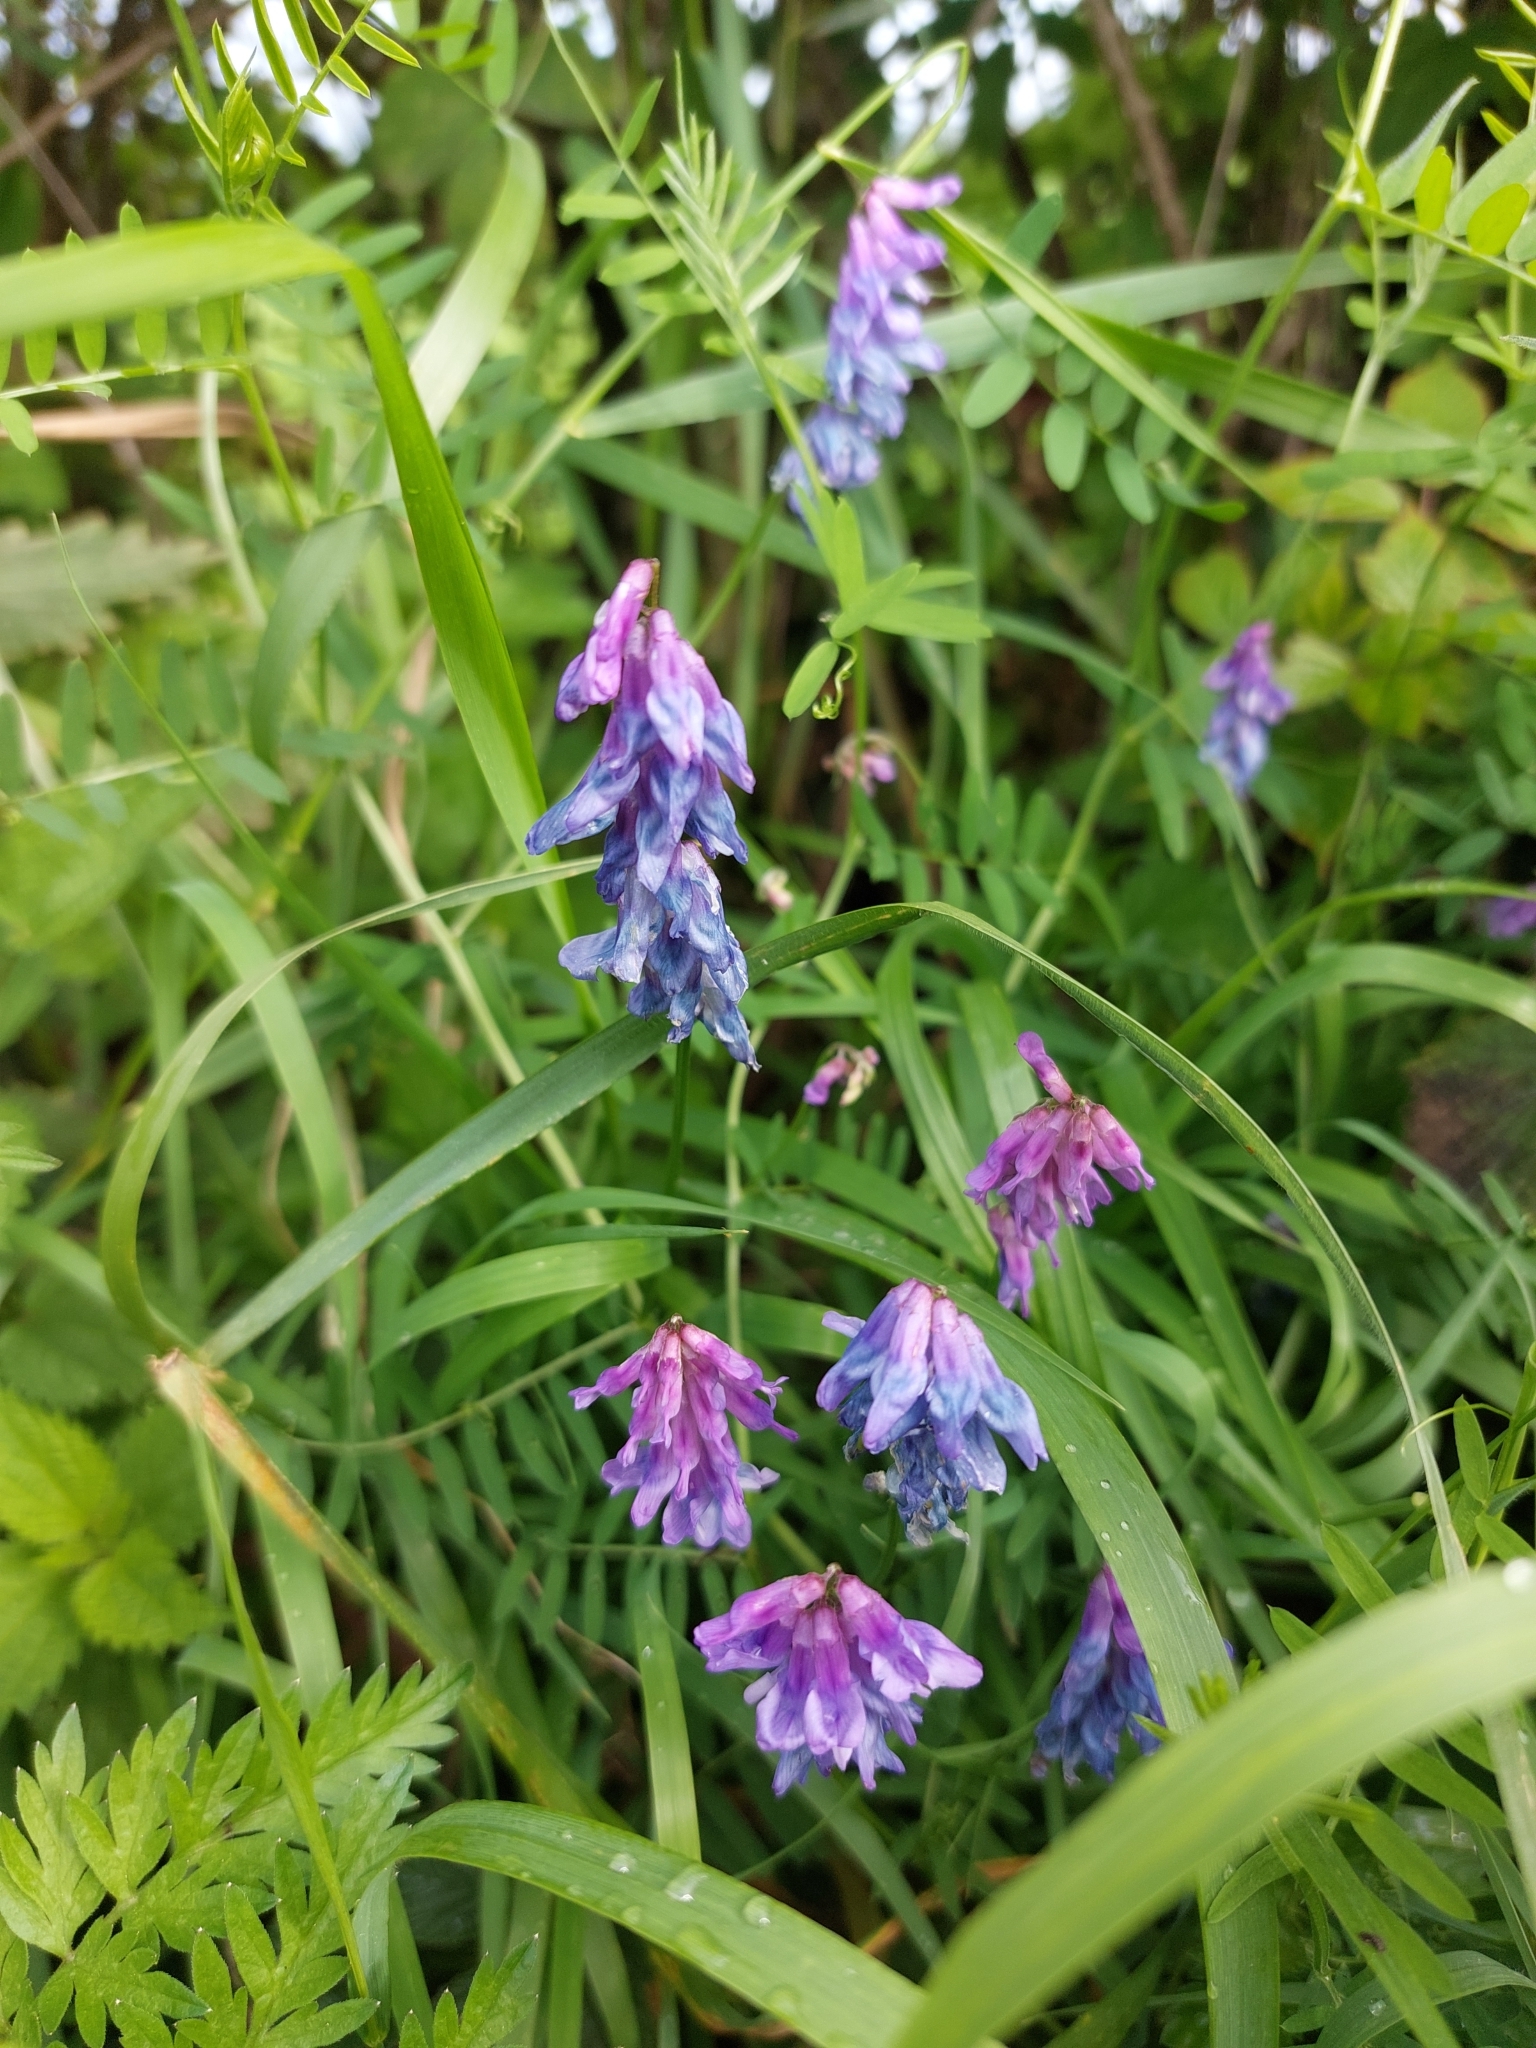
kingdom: Plantae
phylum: Tracheophyta
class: Magnoliopsida
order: Fabales
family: Fabaceae
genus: Vicia
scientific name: Vicia cracca
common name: Bird vetch
